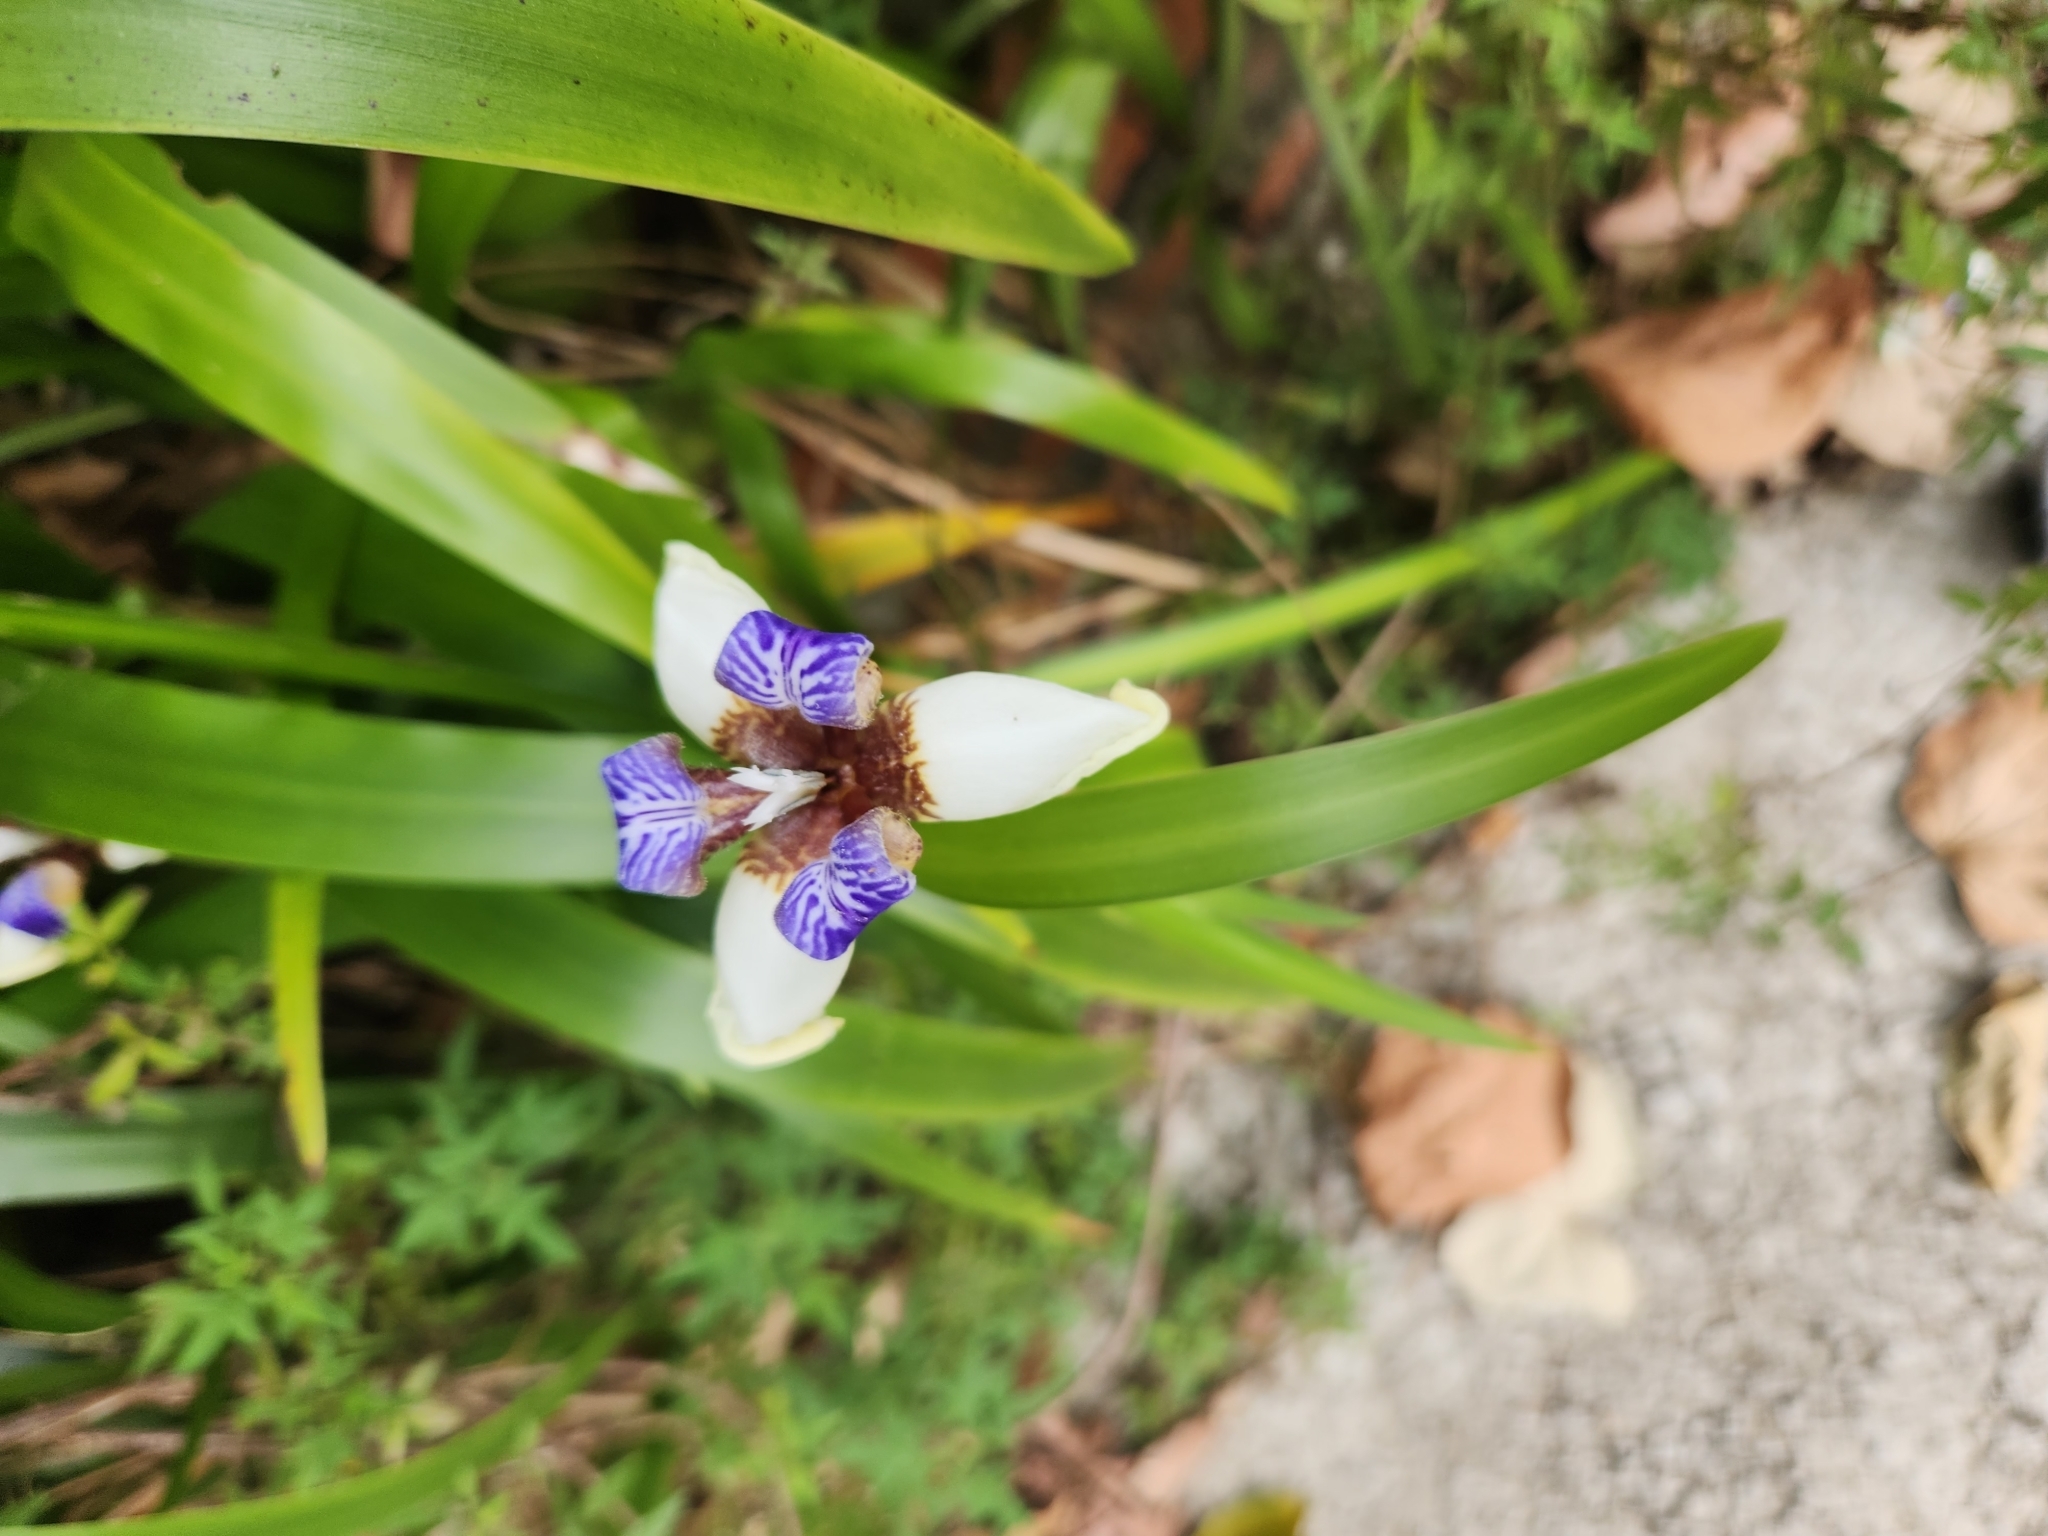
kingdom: Plantae
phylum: Tracheophyta
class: Liliopsida
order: Asparagales
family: Iridaceae
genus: Trimezia
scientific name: Trimezia gracilis
